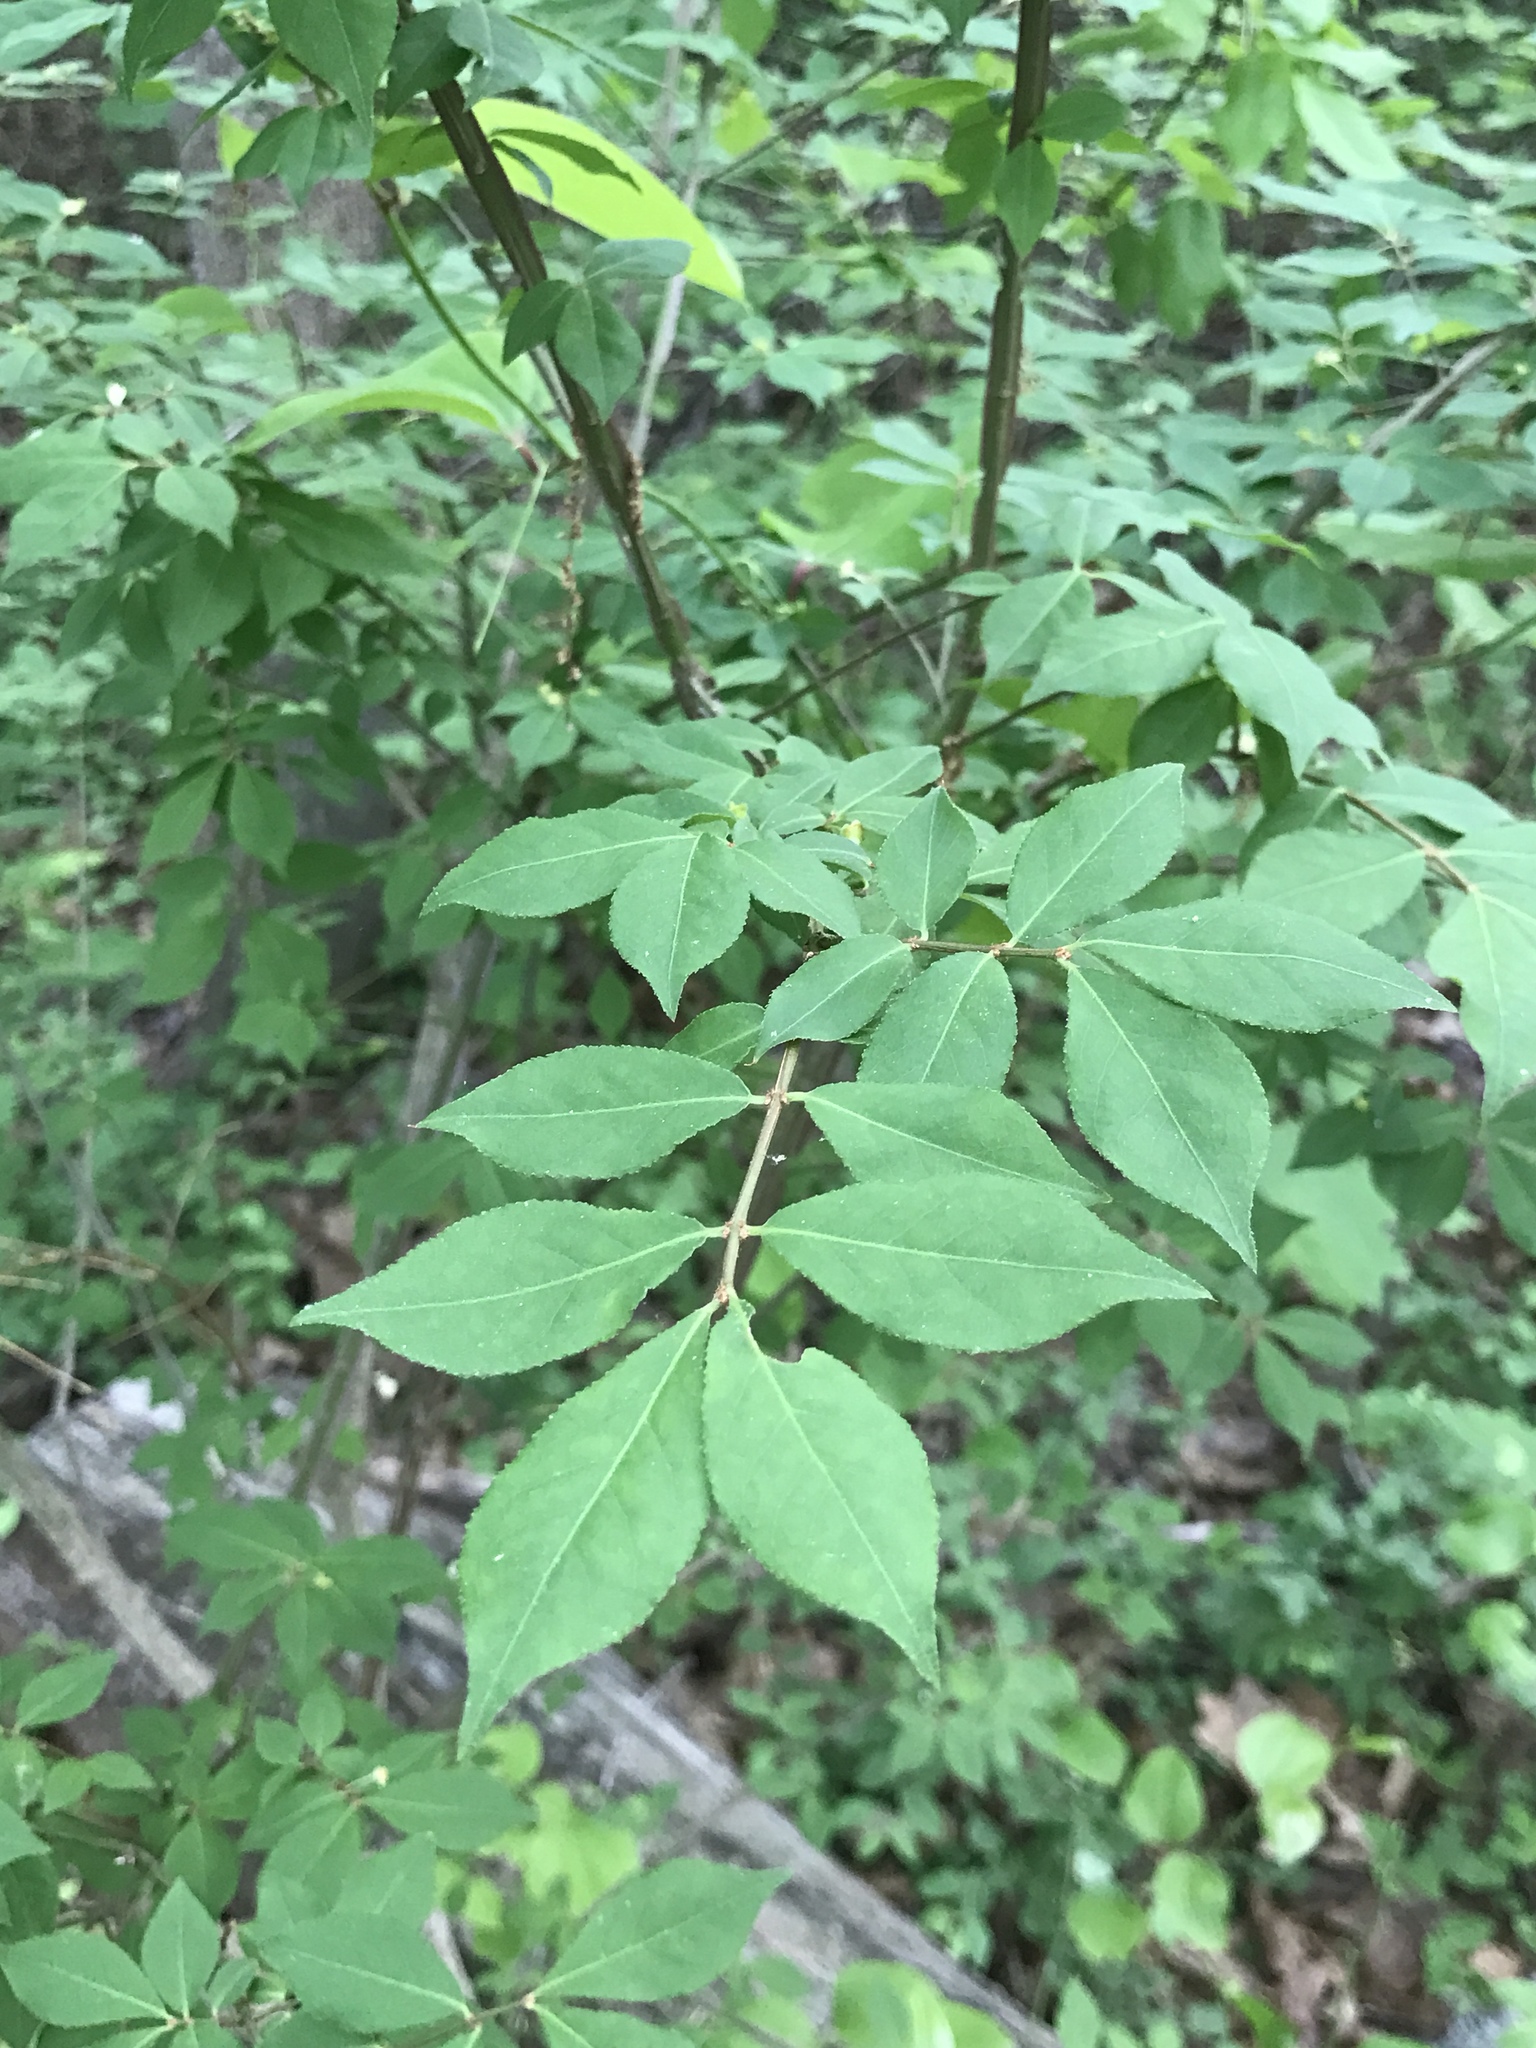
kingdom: Plantae
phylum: Tracheophyta
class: Magnoliopsida
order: Celastrales
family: Celastraceae
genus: Euonymus
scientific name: Euonymus alatus
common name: Winged euonymus
